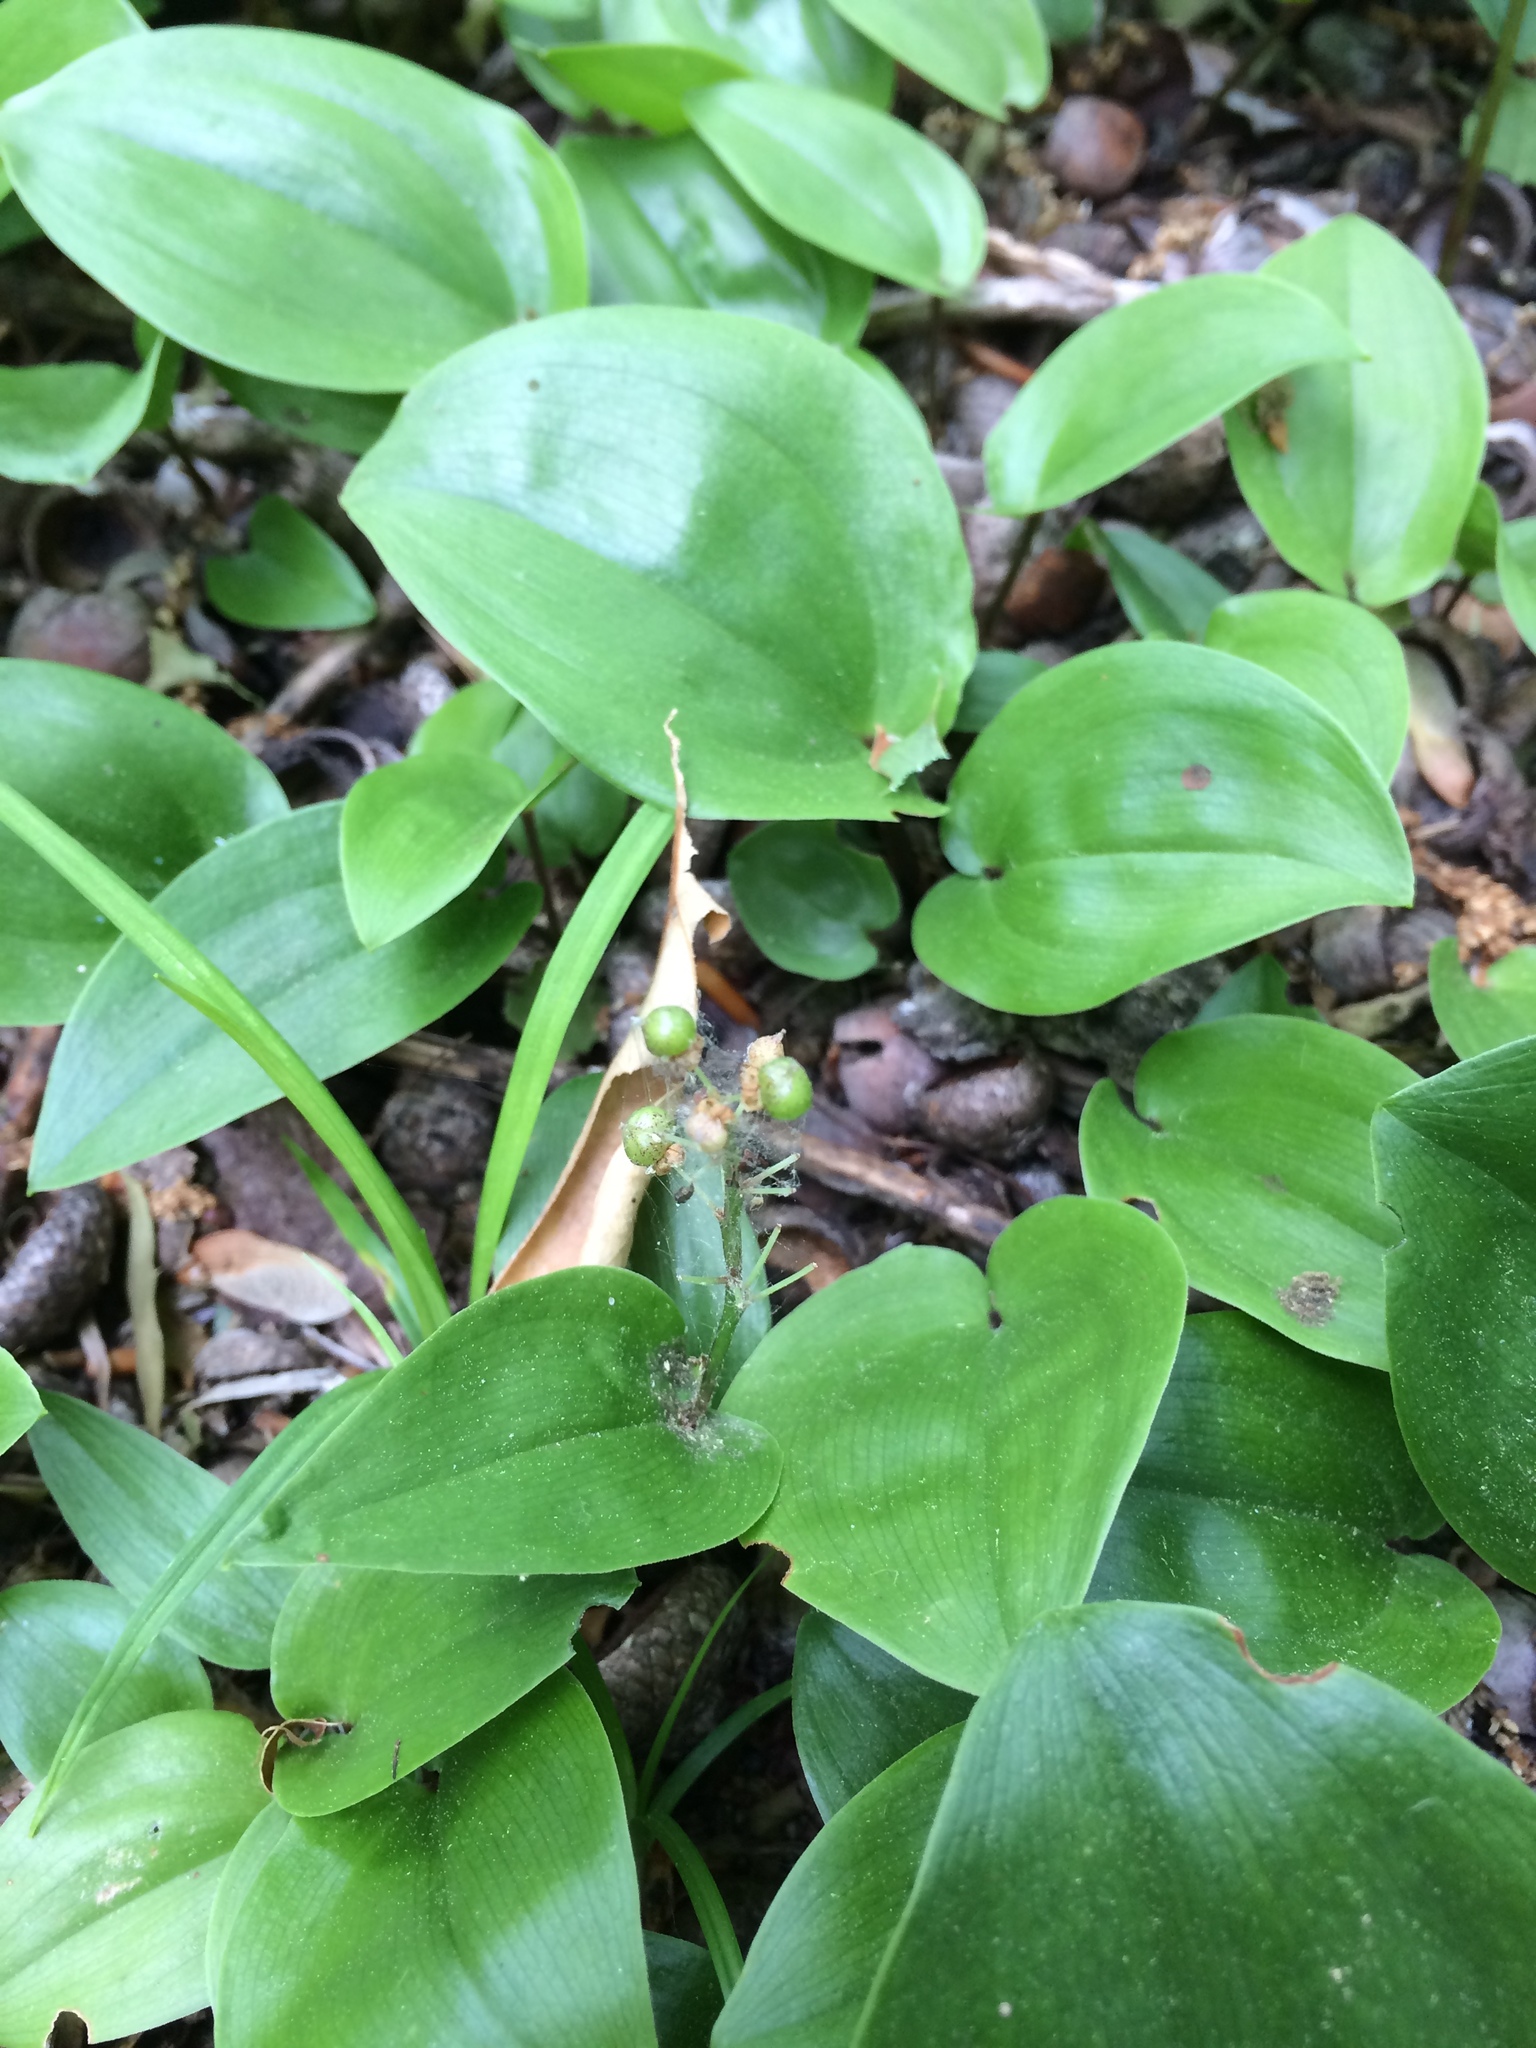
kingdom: Plantae
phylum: Tracheophyta
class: Liliopsida
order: Asparagales
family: Asparagaceae
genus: Maianthemum
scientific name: Maianthemum canadense
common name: False lily-of-the-valley
